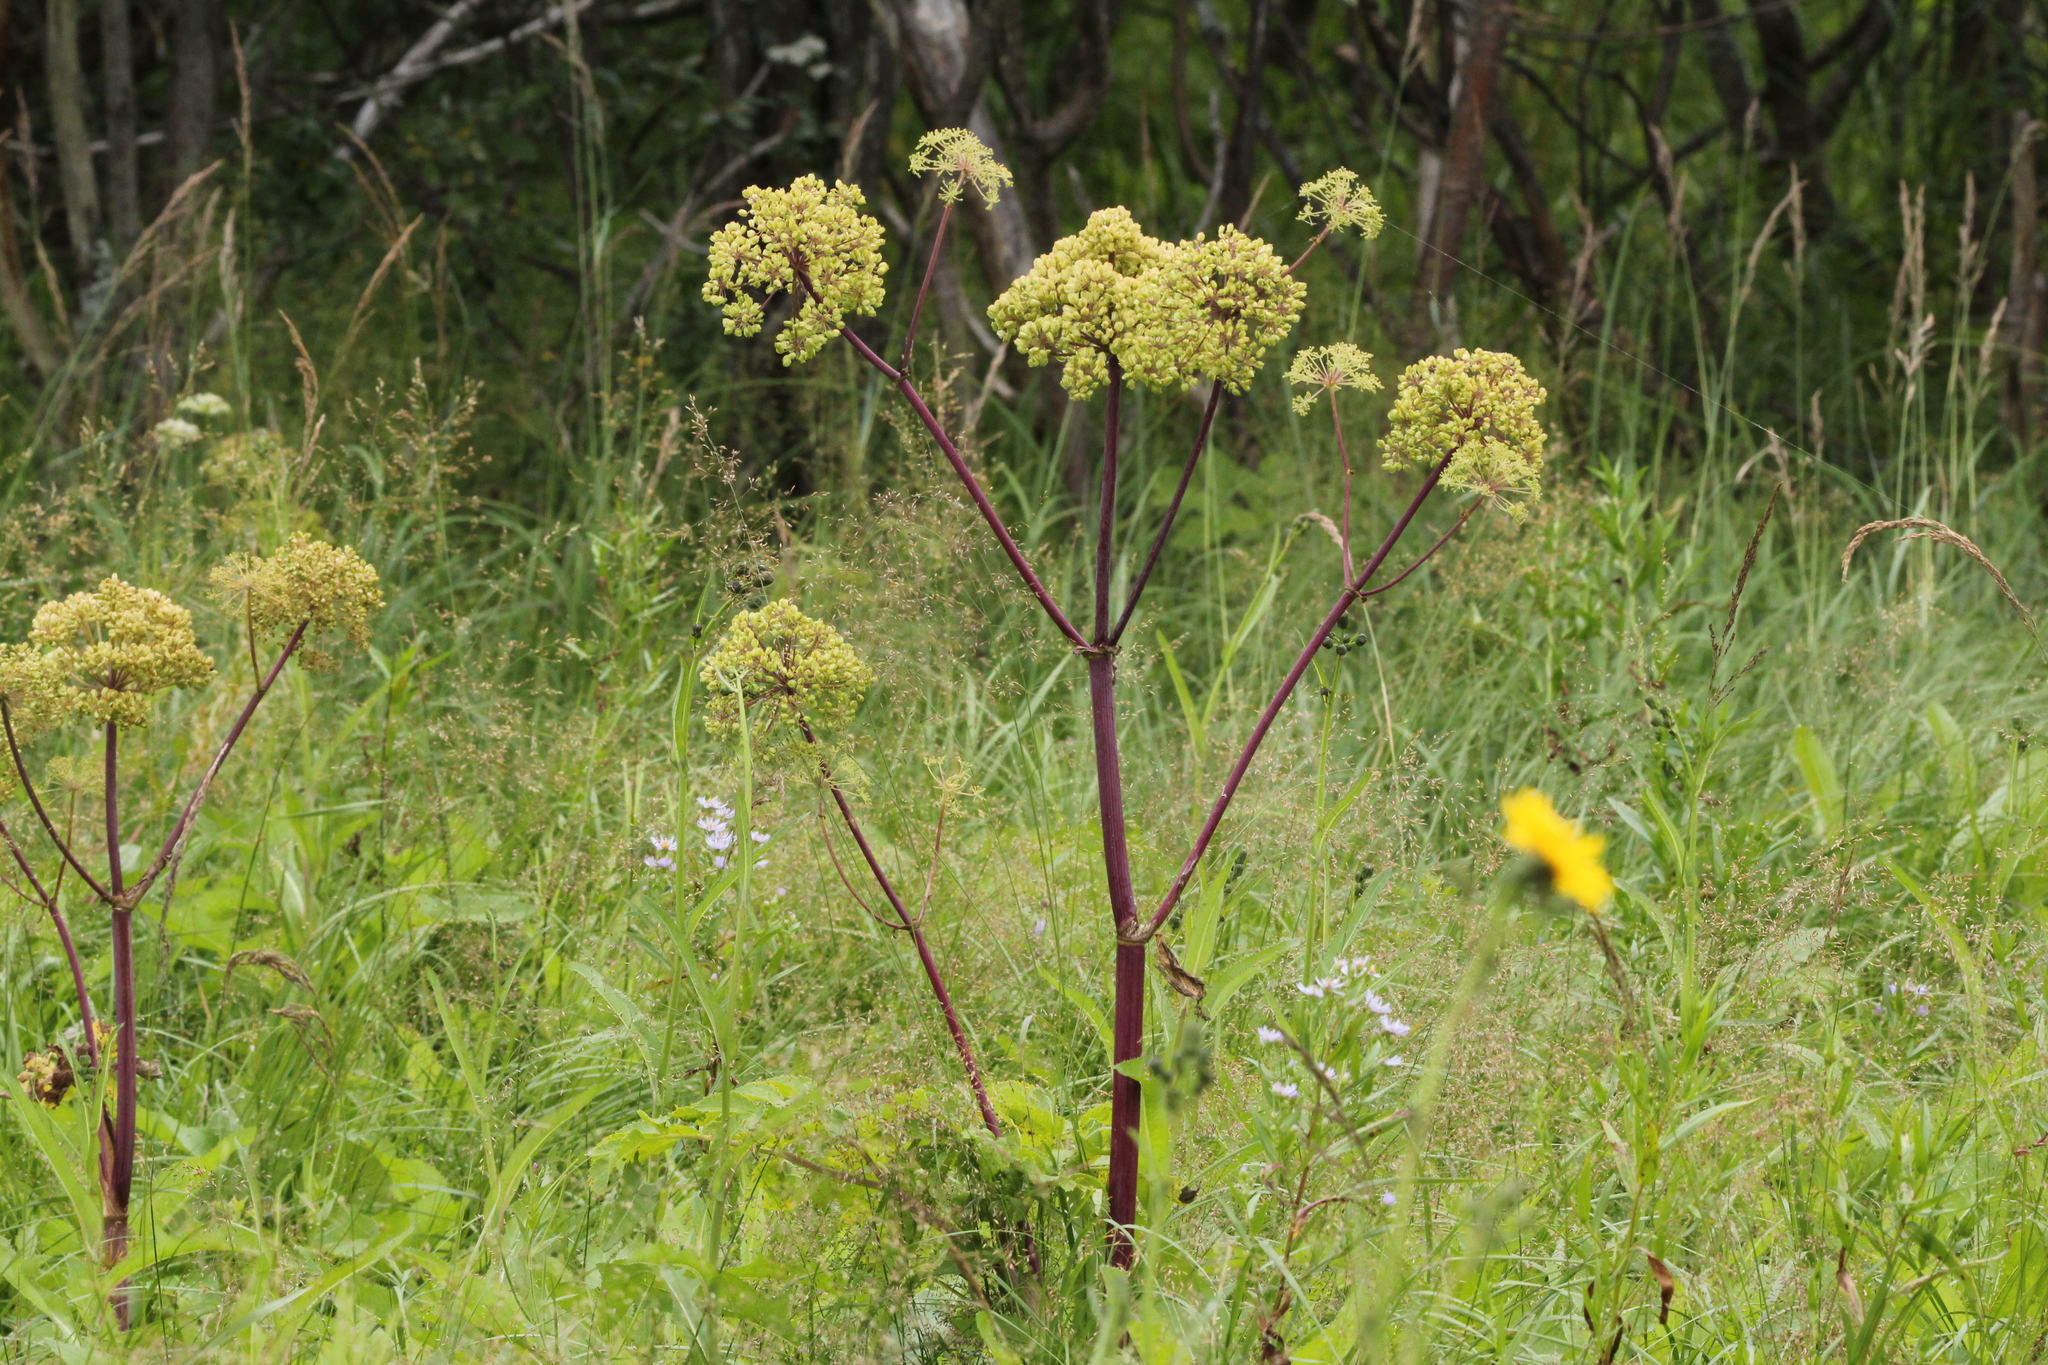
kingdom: Plantae
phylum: Tracheophyta
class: Magnoliopsida
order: Apiales
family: Apiaceae
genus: Angelica
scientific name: Angelica atropurpurea
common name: Great angelica
